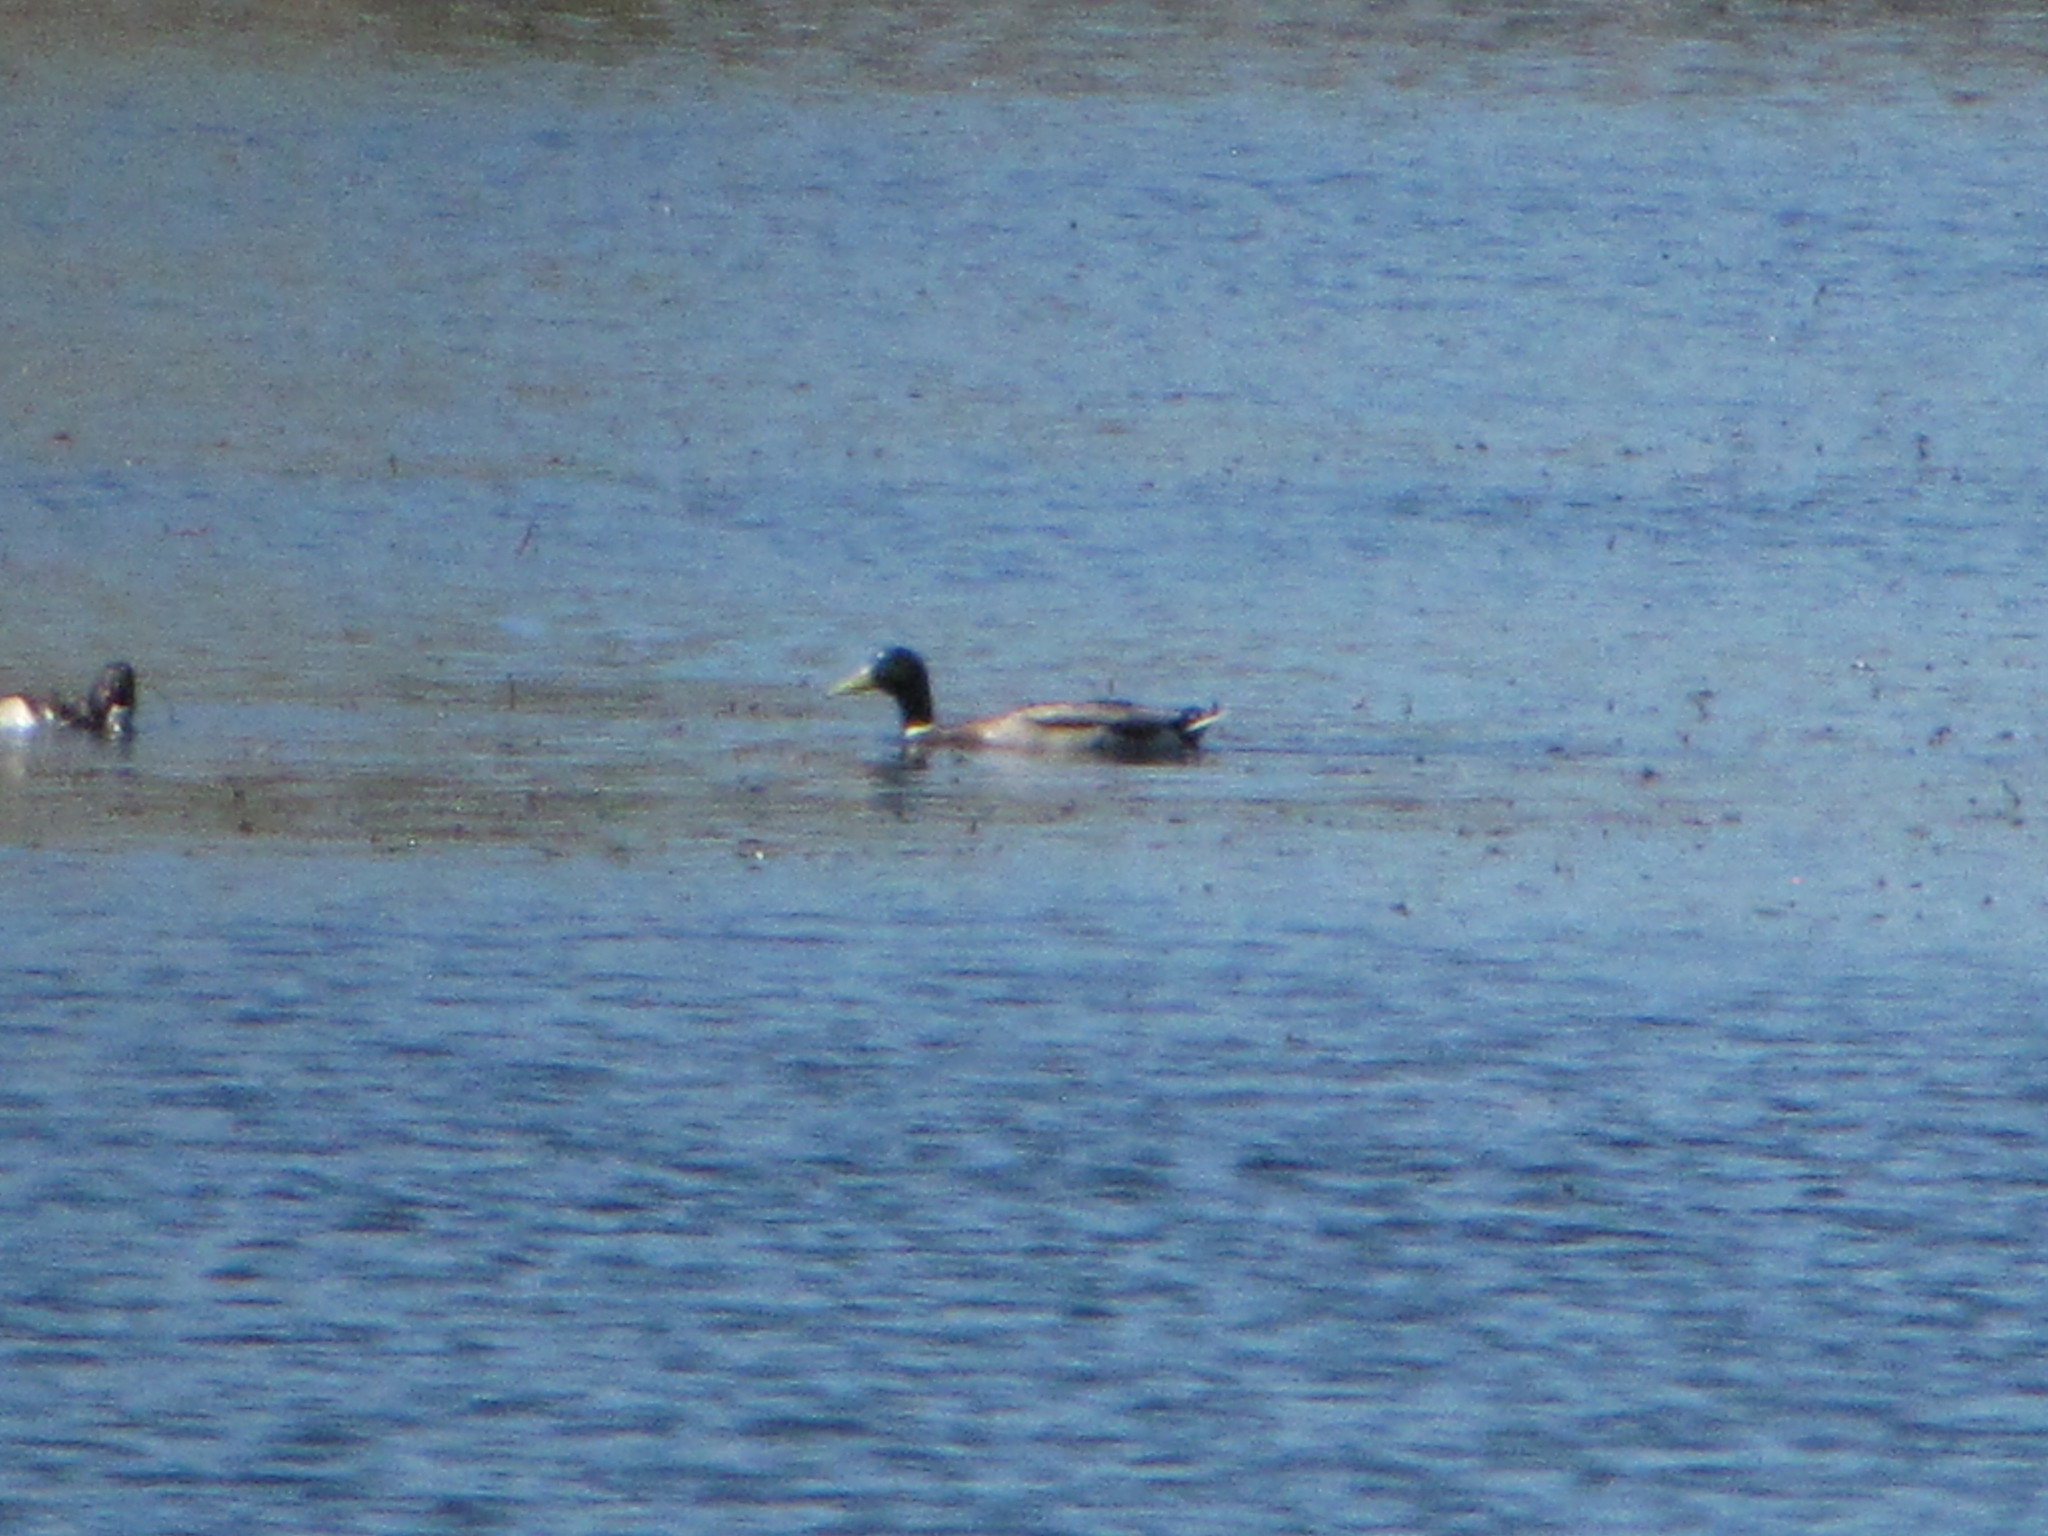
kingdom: Animalia
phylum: Chordata
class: Aves
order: Anseriformes
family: Anatidae
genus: Anas
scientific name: Anas platyrhynchos
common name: Mallard
